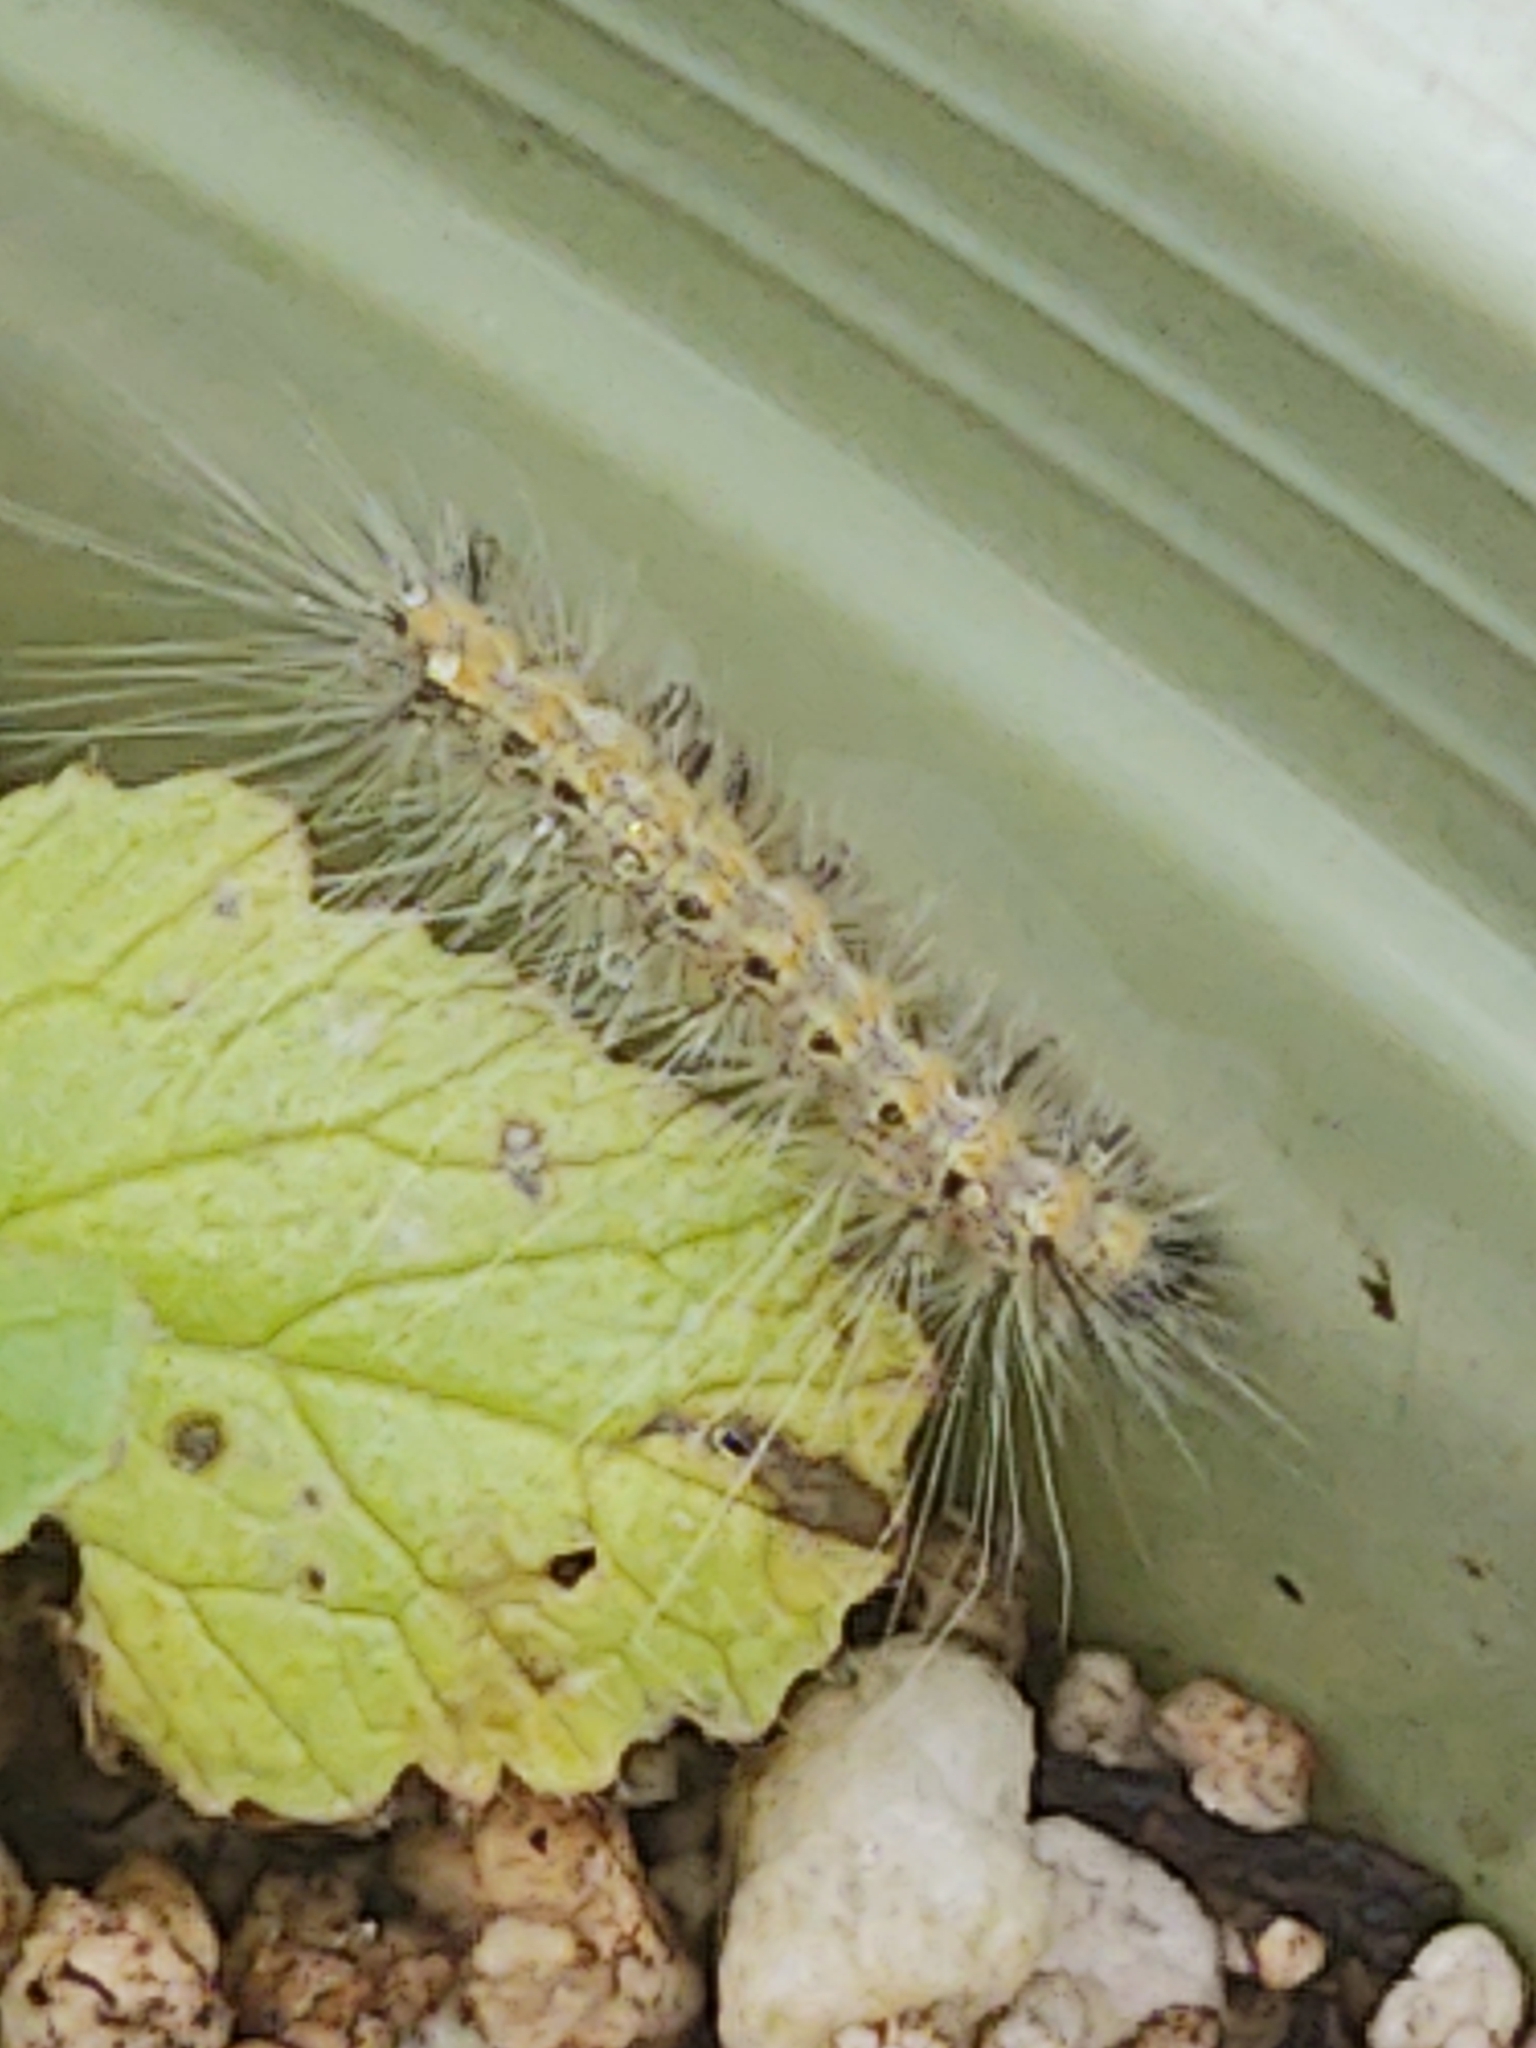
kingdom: Animalia
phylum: Arthropoda
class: Insecta
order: Lepidoptera
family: Erebidae
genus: Hyphantria
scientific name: Hyphantria cunea
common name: American white moth
